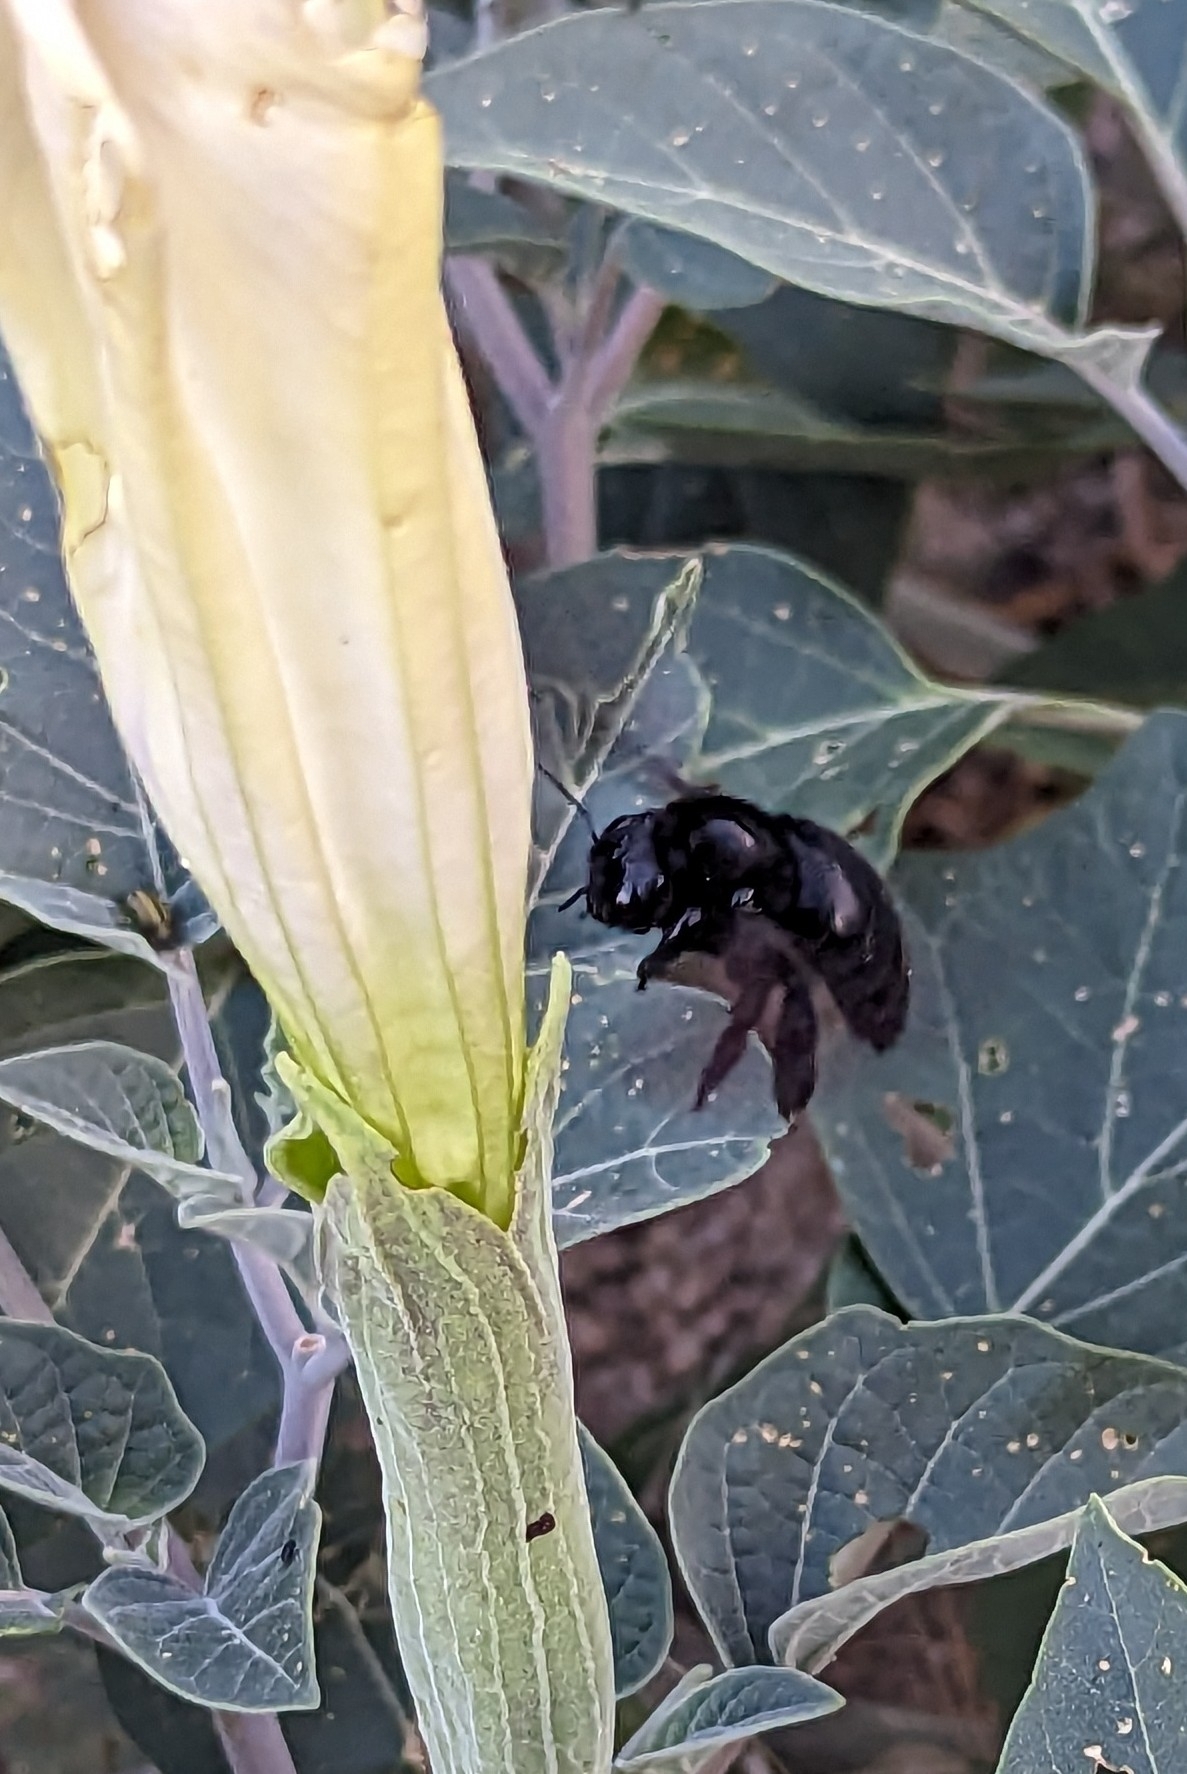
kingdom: Animalia
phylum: Arthropoda
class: Insecta
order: Hymenoptera
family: Apidae
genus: Xylocopa
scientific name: Xylocopa sonorina
